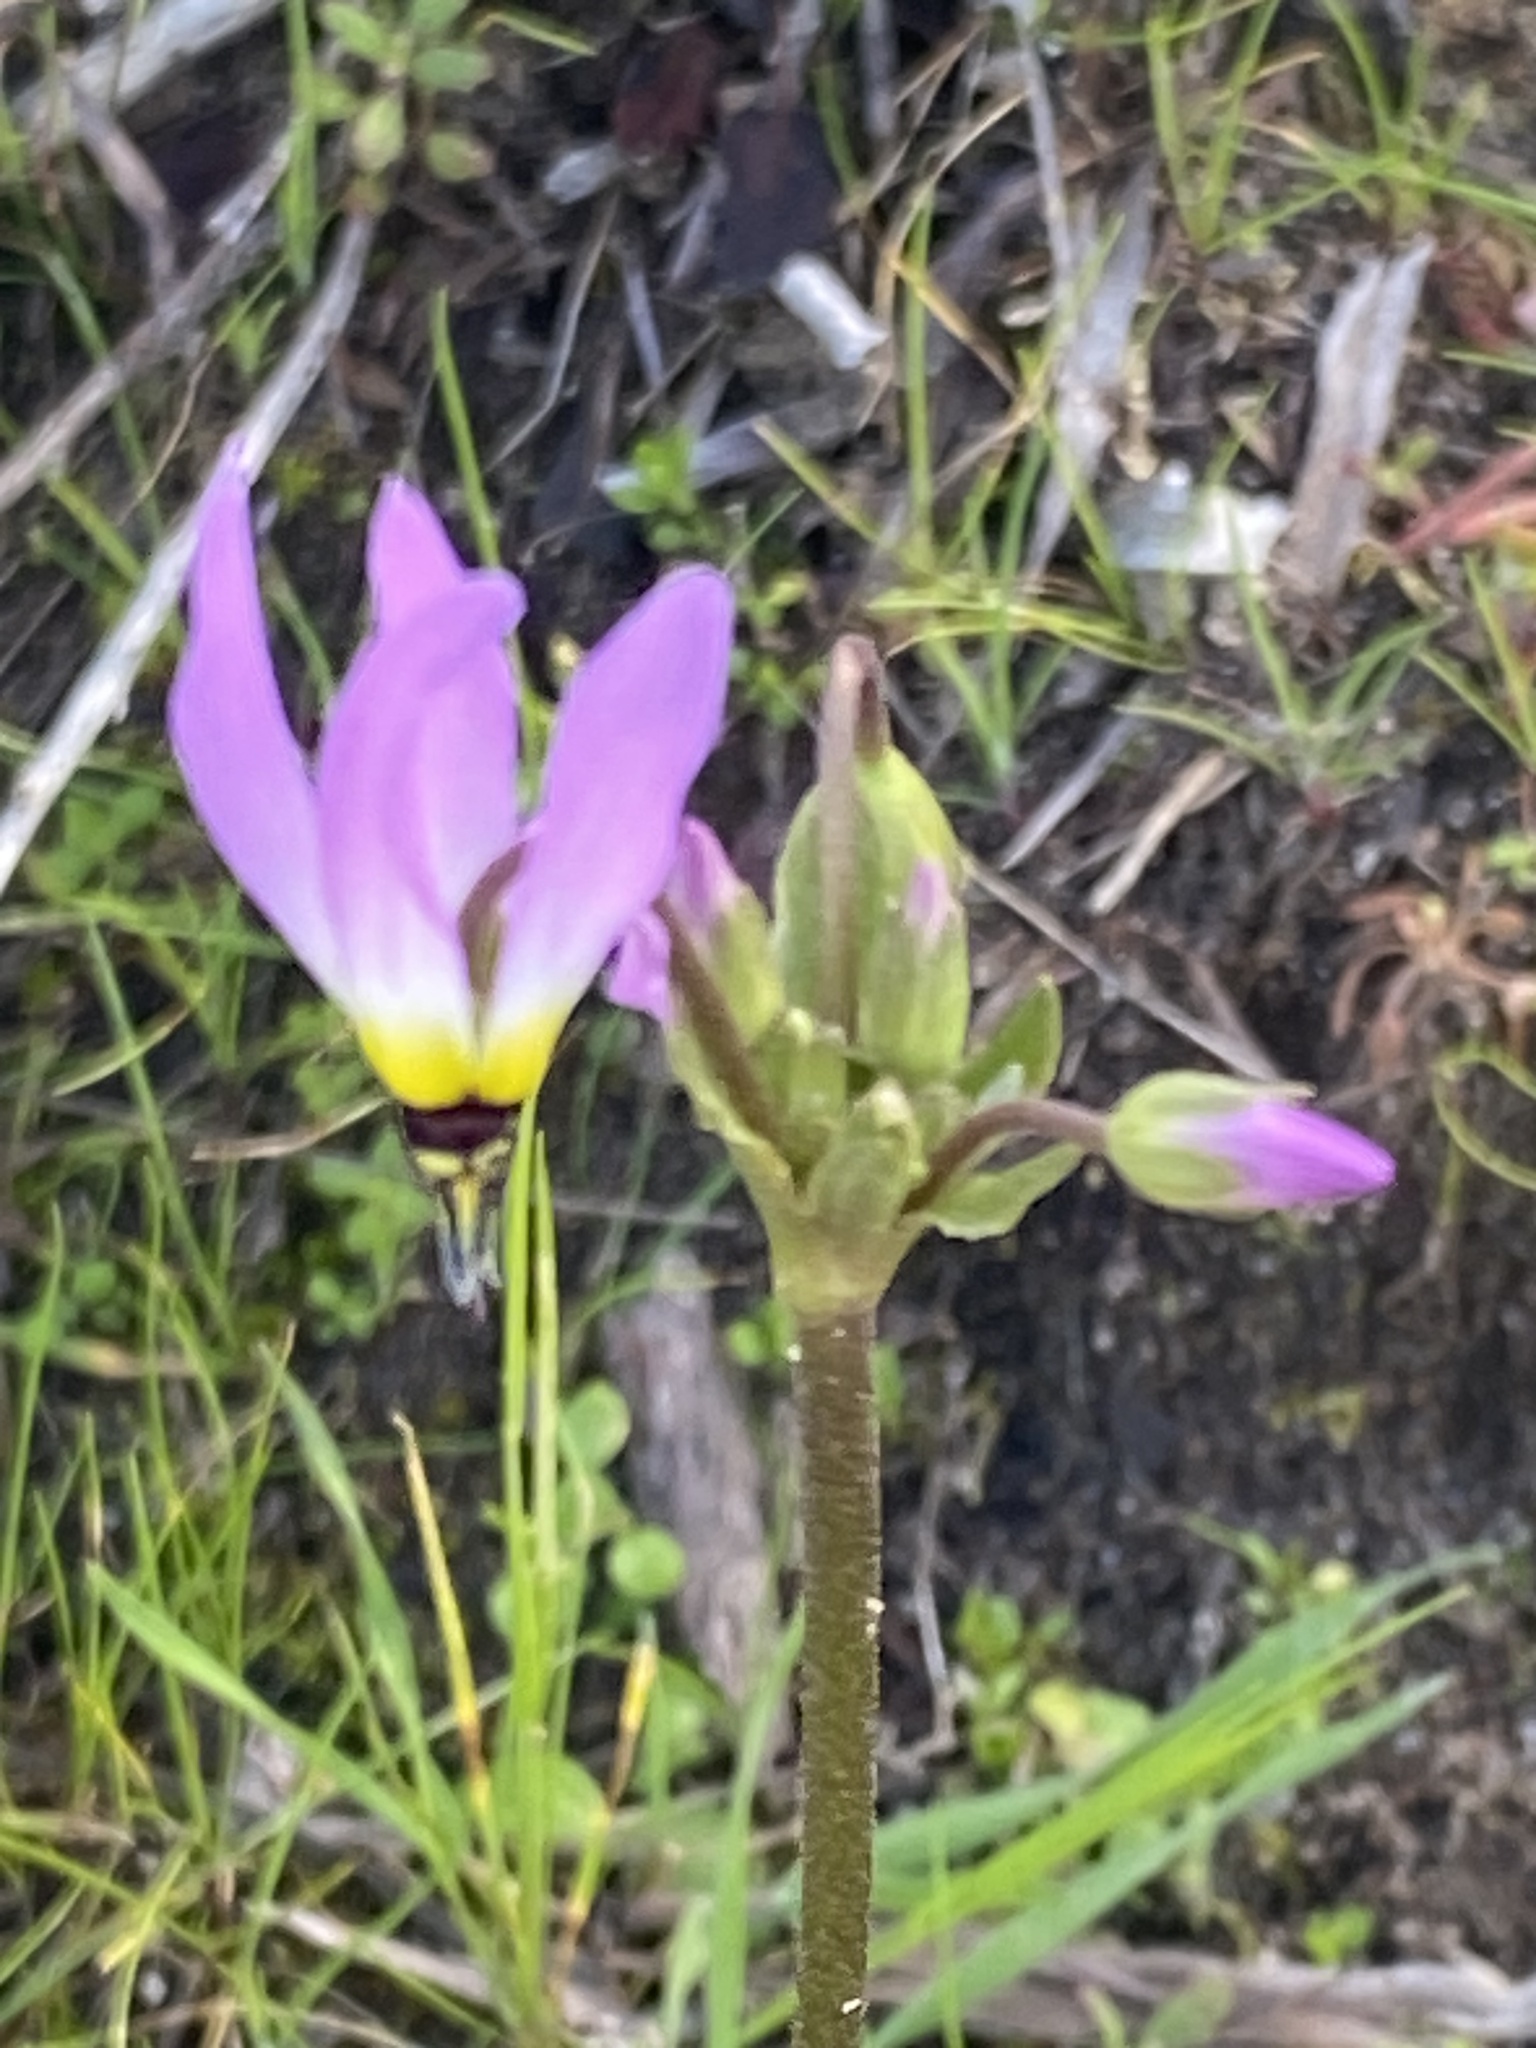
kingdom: Plantae
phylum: Tracheophyta
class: Magnoliopsida
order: Ericales
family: Primulaceae
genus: Dodecatheon
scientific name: Dodecatheon clevelandii
